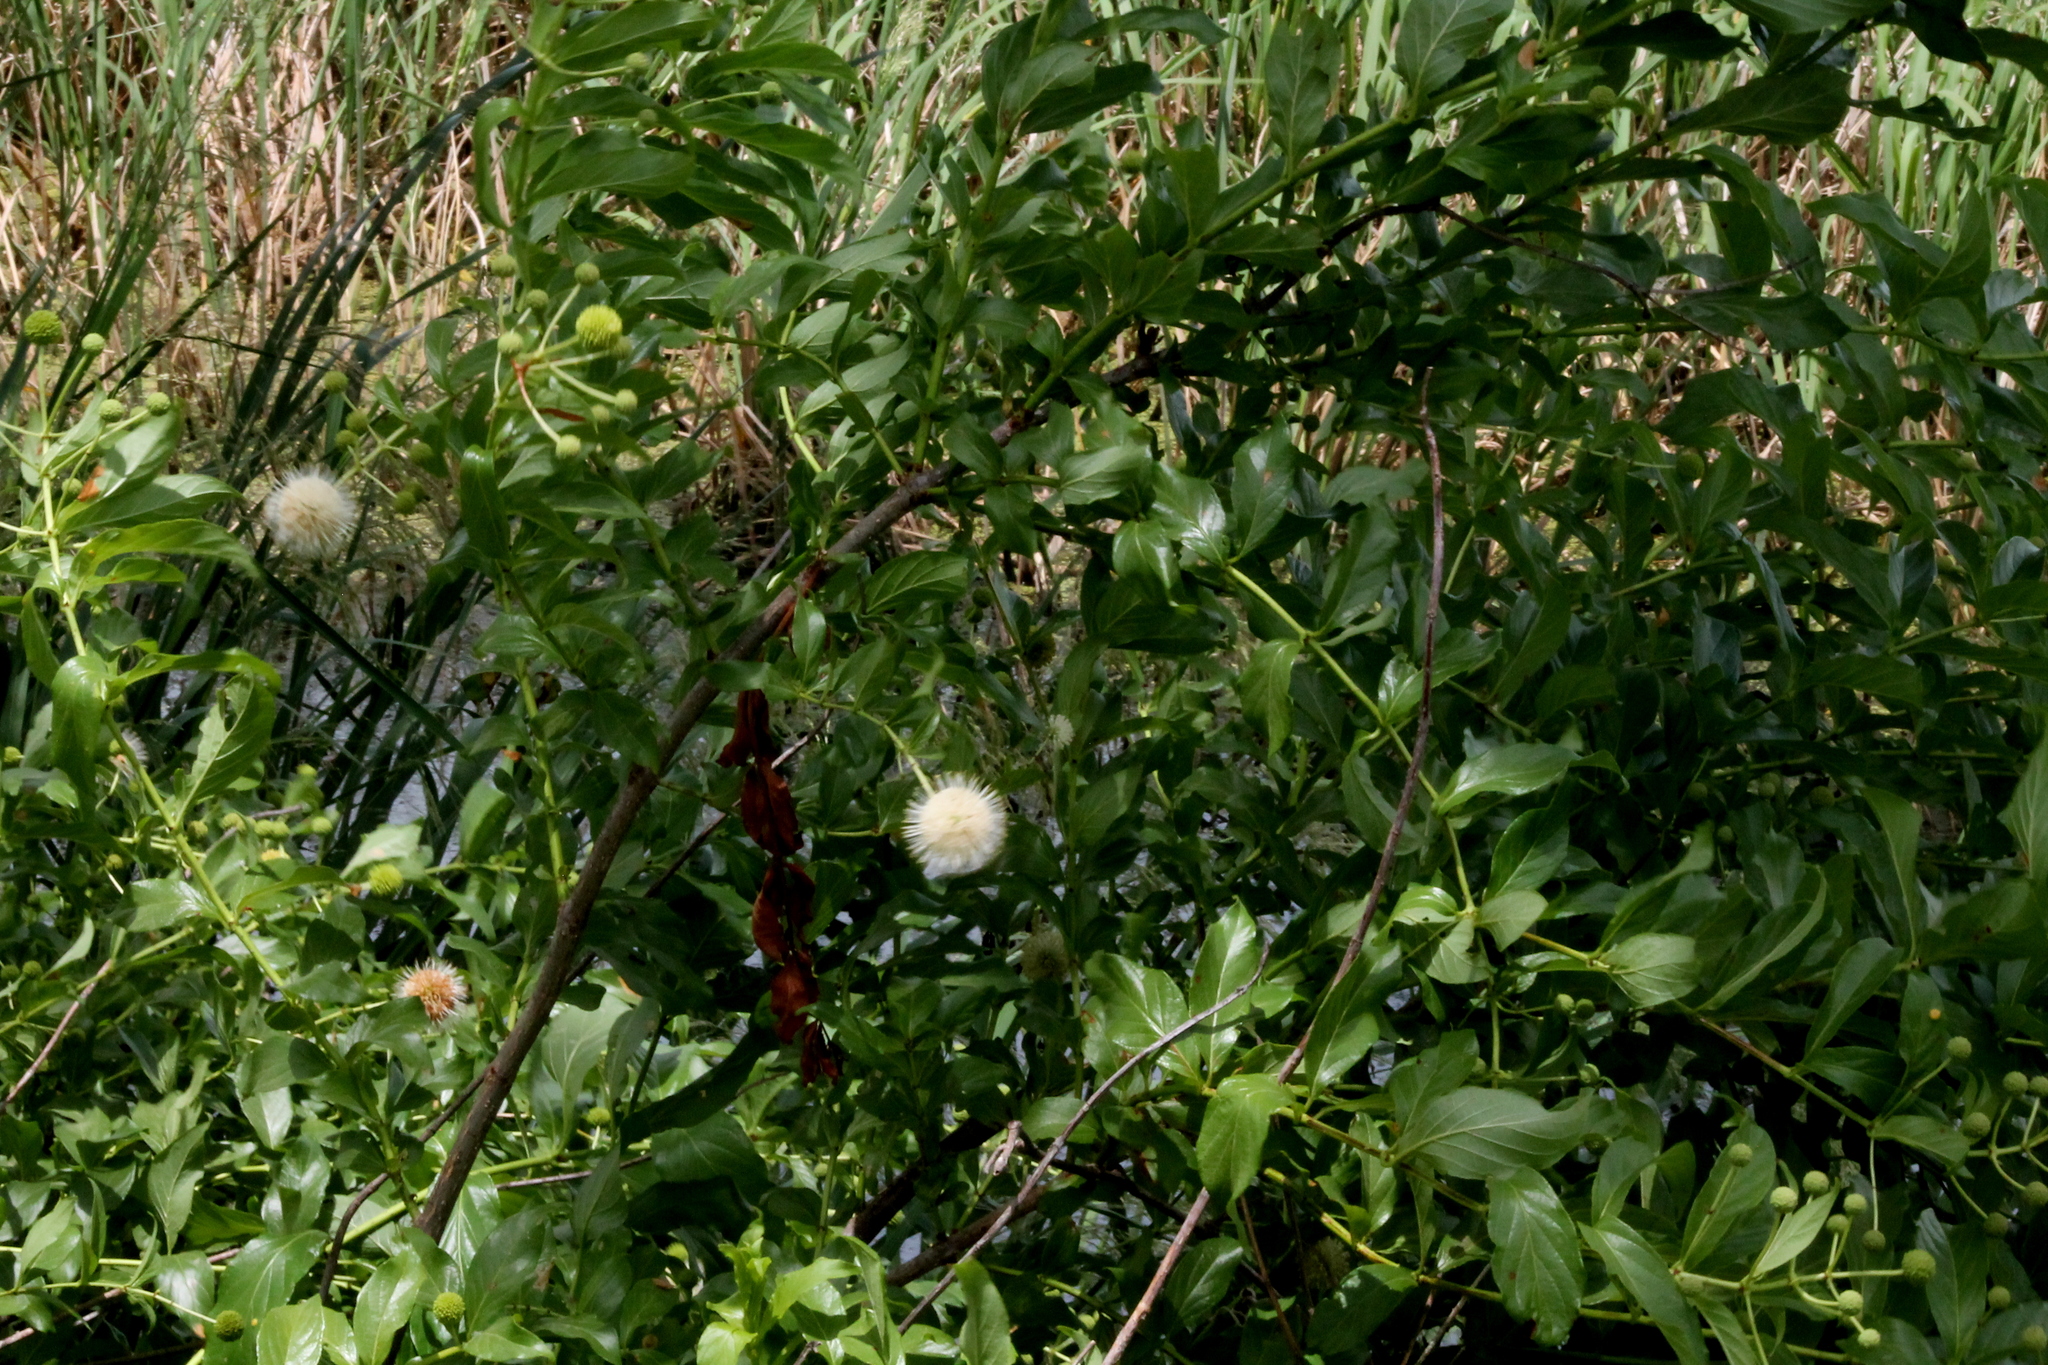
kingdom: Plantae
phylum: Tracheophyta
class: Magnoliopsida
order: Gentianales
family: Rubiaceae
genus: Cephalanthus
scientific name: Cephalanthus occidentalis
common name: Button-willow
